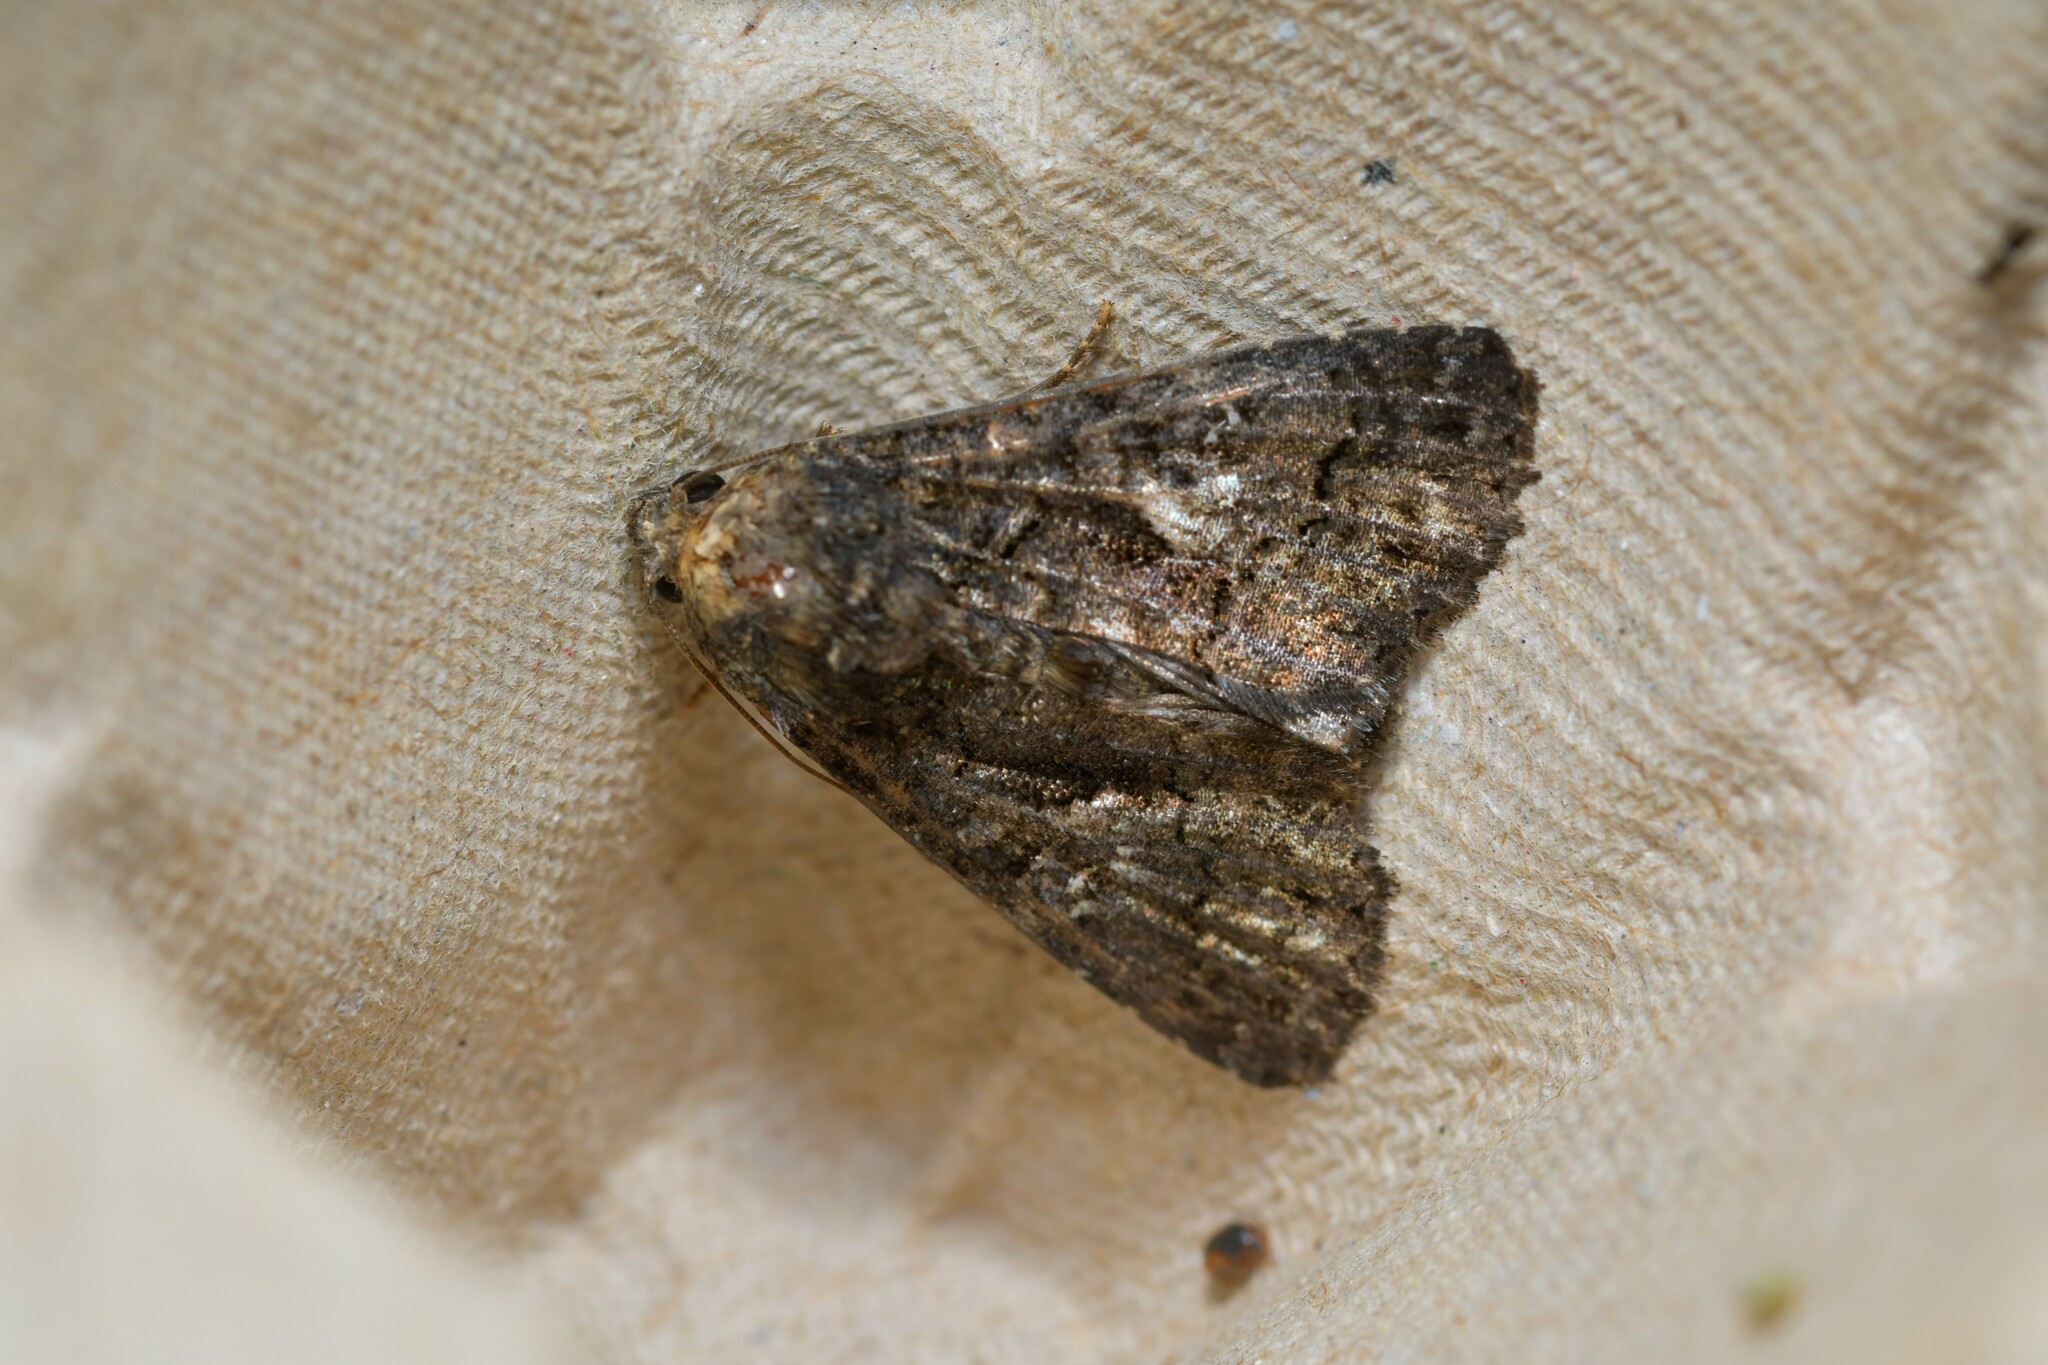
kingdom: Animalia
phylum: Arthropoda
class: Insecta
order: Lepidoptera
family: Noctuidae
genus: Aedia
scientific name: Aedia leucomelas
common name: Sorcerer
